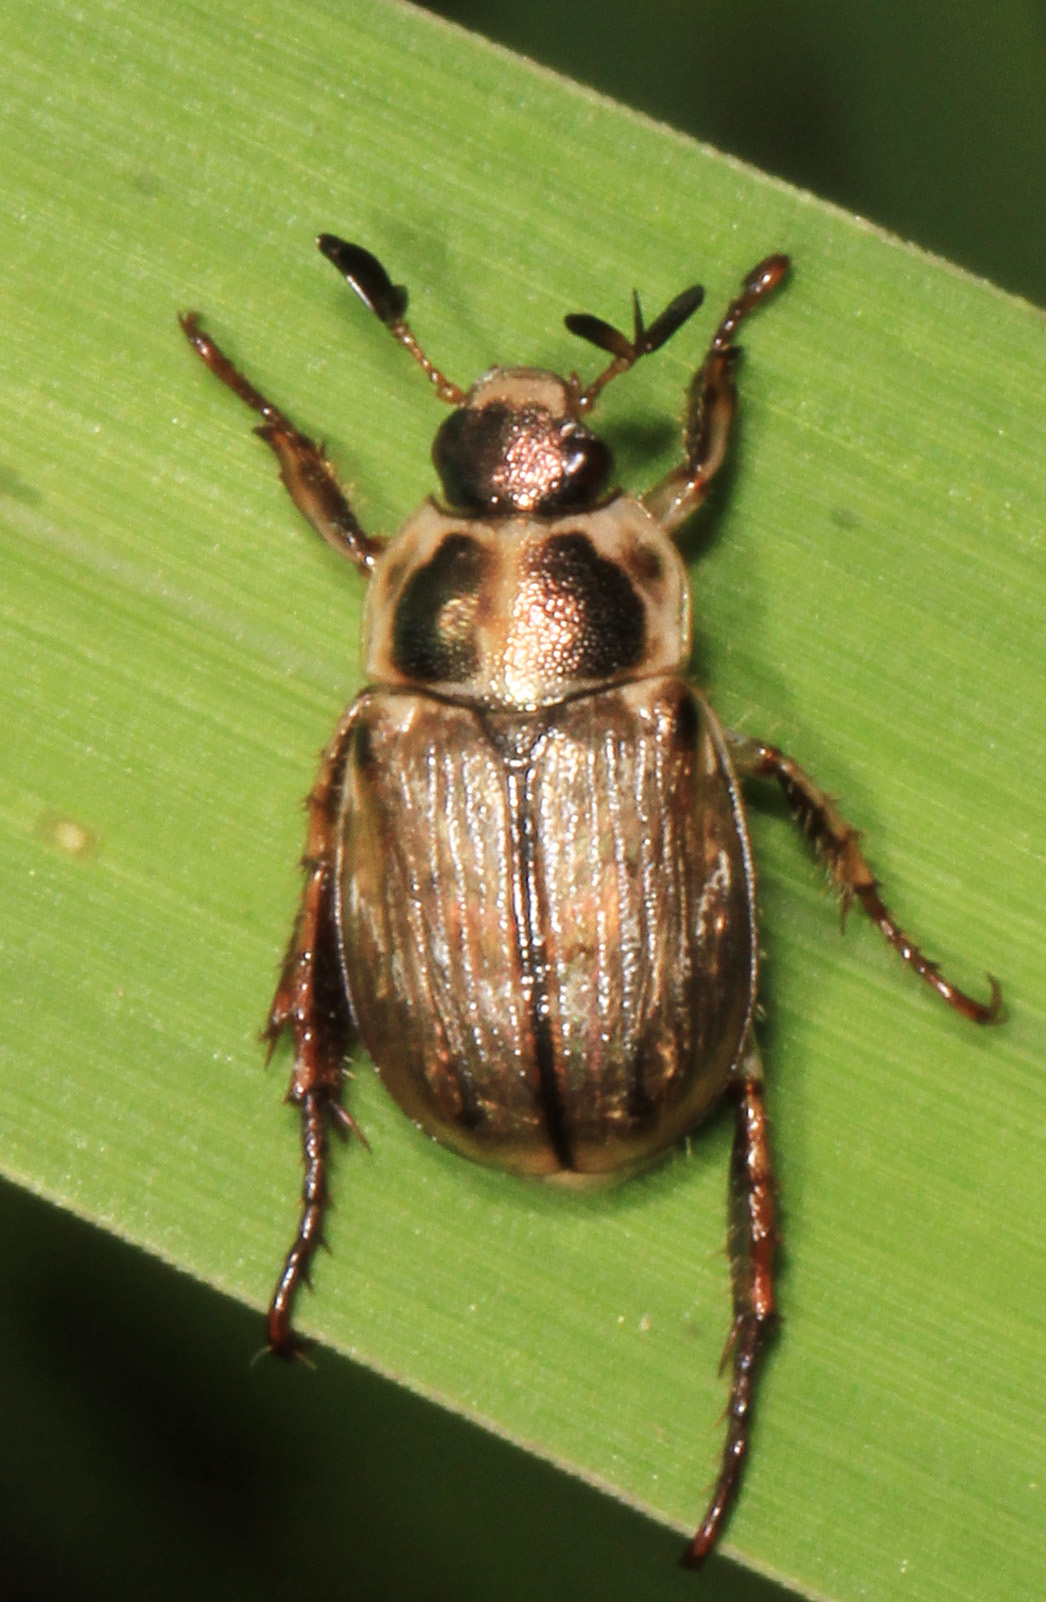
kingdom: Animalia
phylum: Arthropoda
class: Insecta
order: Coleoptera
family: Scarabaeidae
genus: Exomala
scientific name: Exomala orientalis
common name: Oriental beetle
